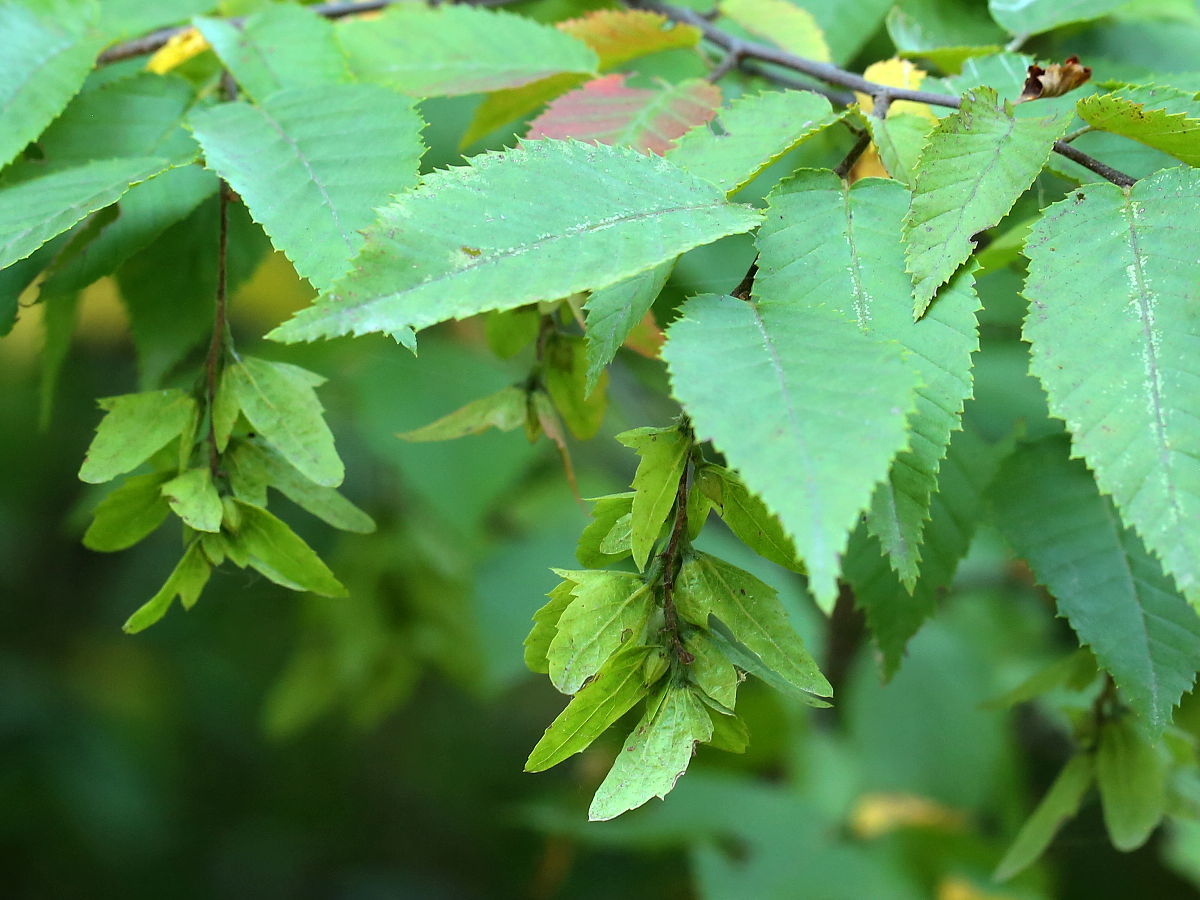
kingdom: Plantae
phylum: Tracheophyta
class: Magnoliopsida
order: Fagales
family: Betulaceae
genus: Carpinus
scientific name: Carpinus caroliniana
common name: American hornbeam
